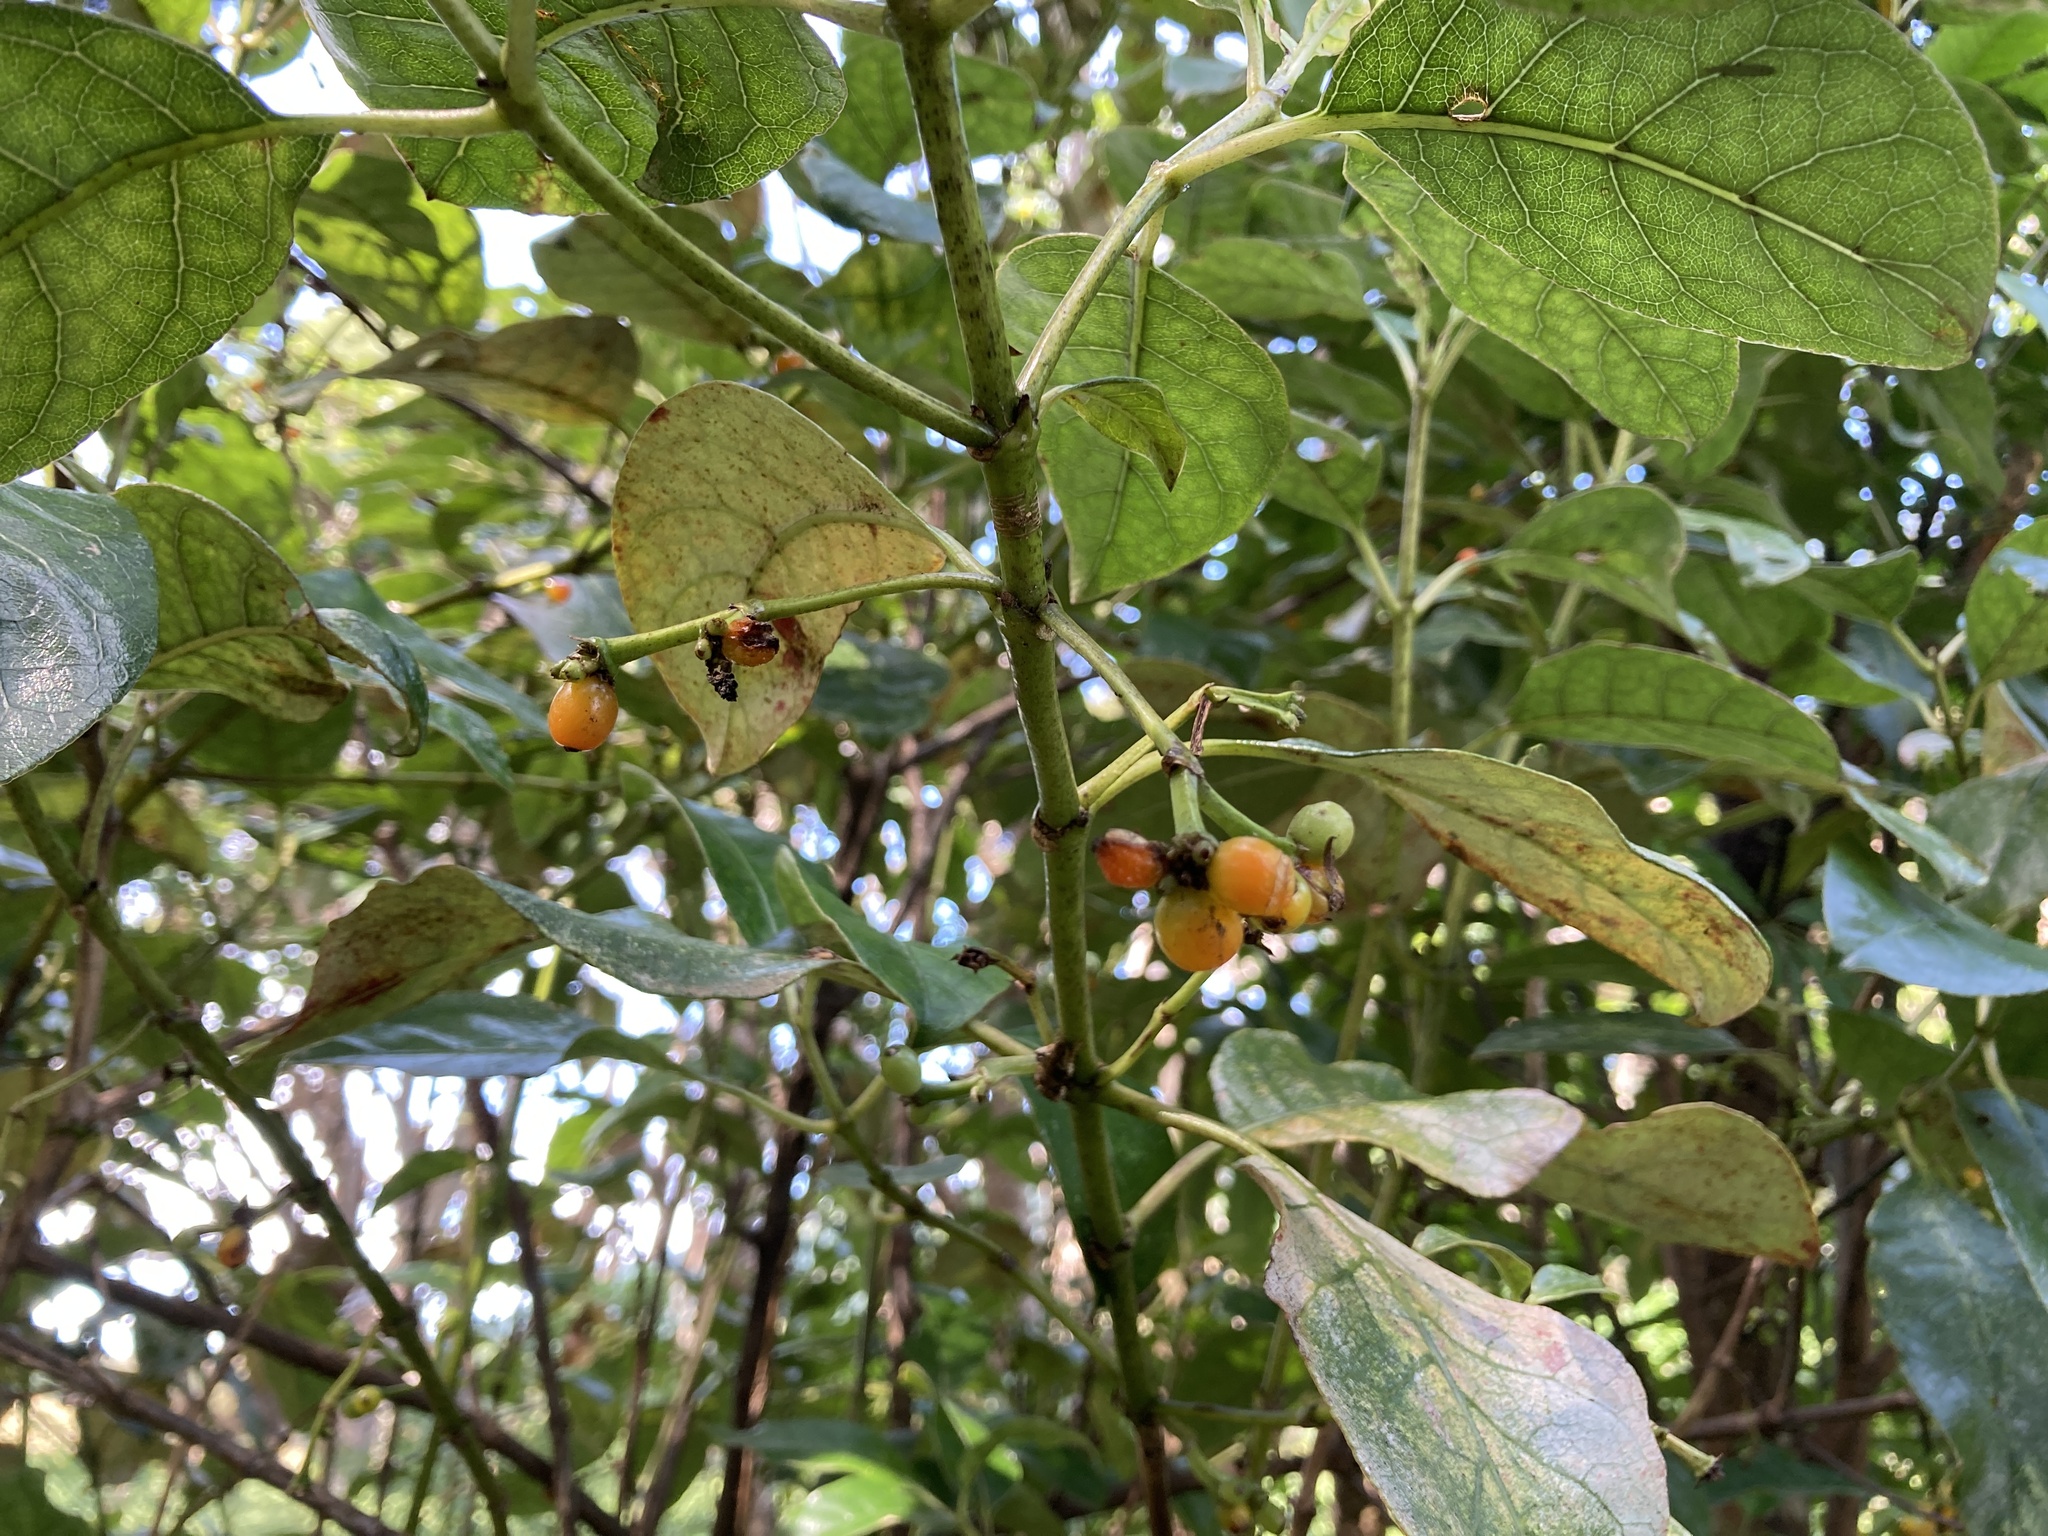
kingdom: Plantae
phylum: Tracheophyta
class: Magnoliopsida
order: Gentianales
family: Rubiaceae
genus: Coprosma
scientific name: Coprosma autumnalis
